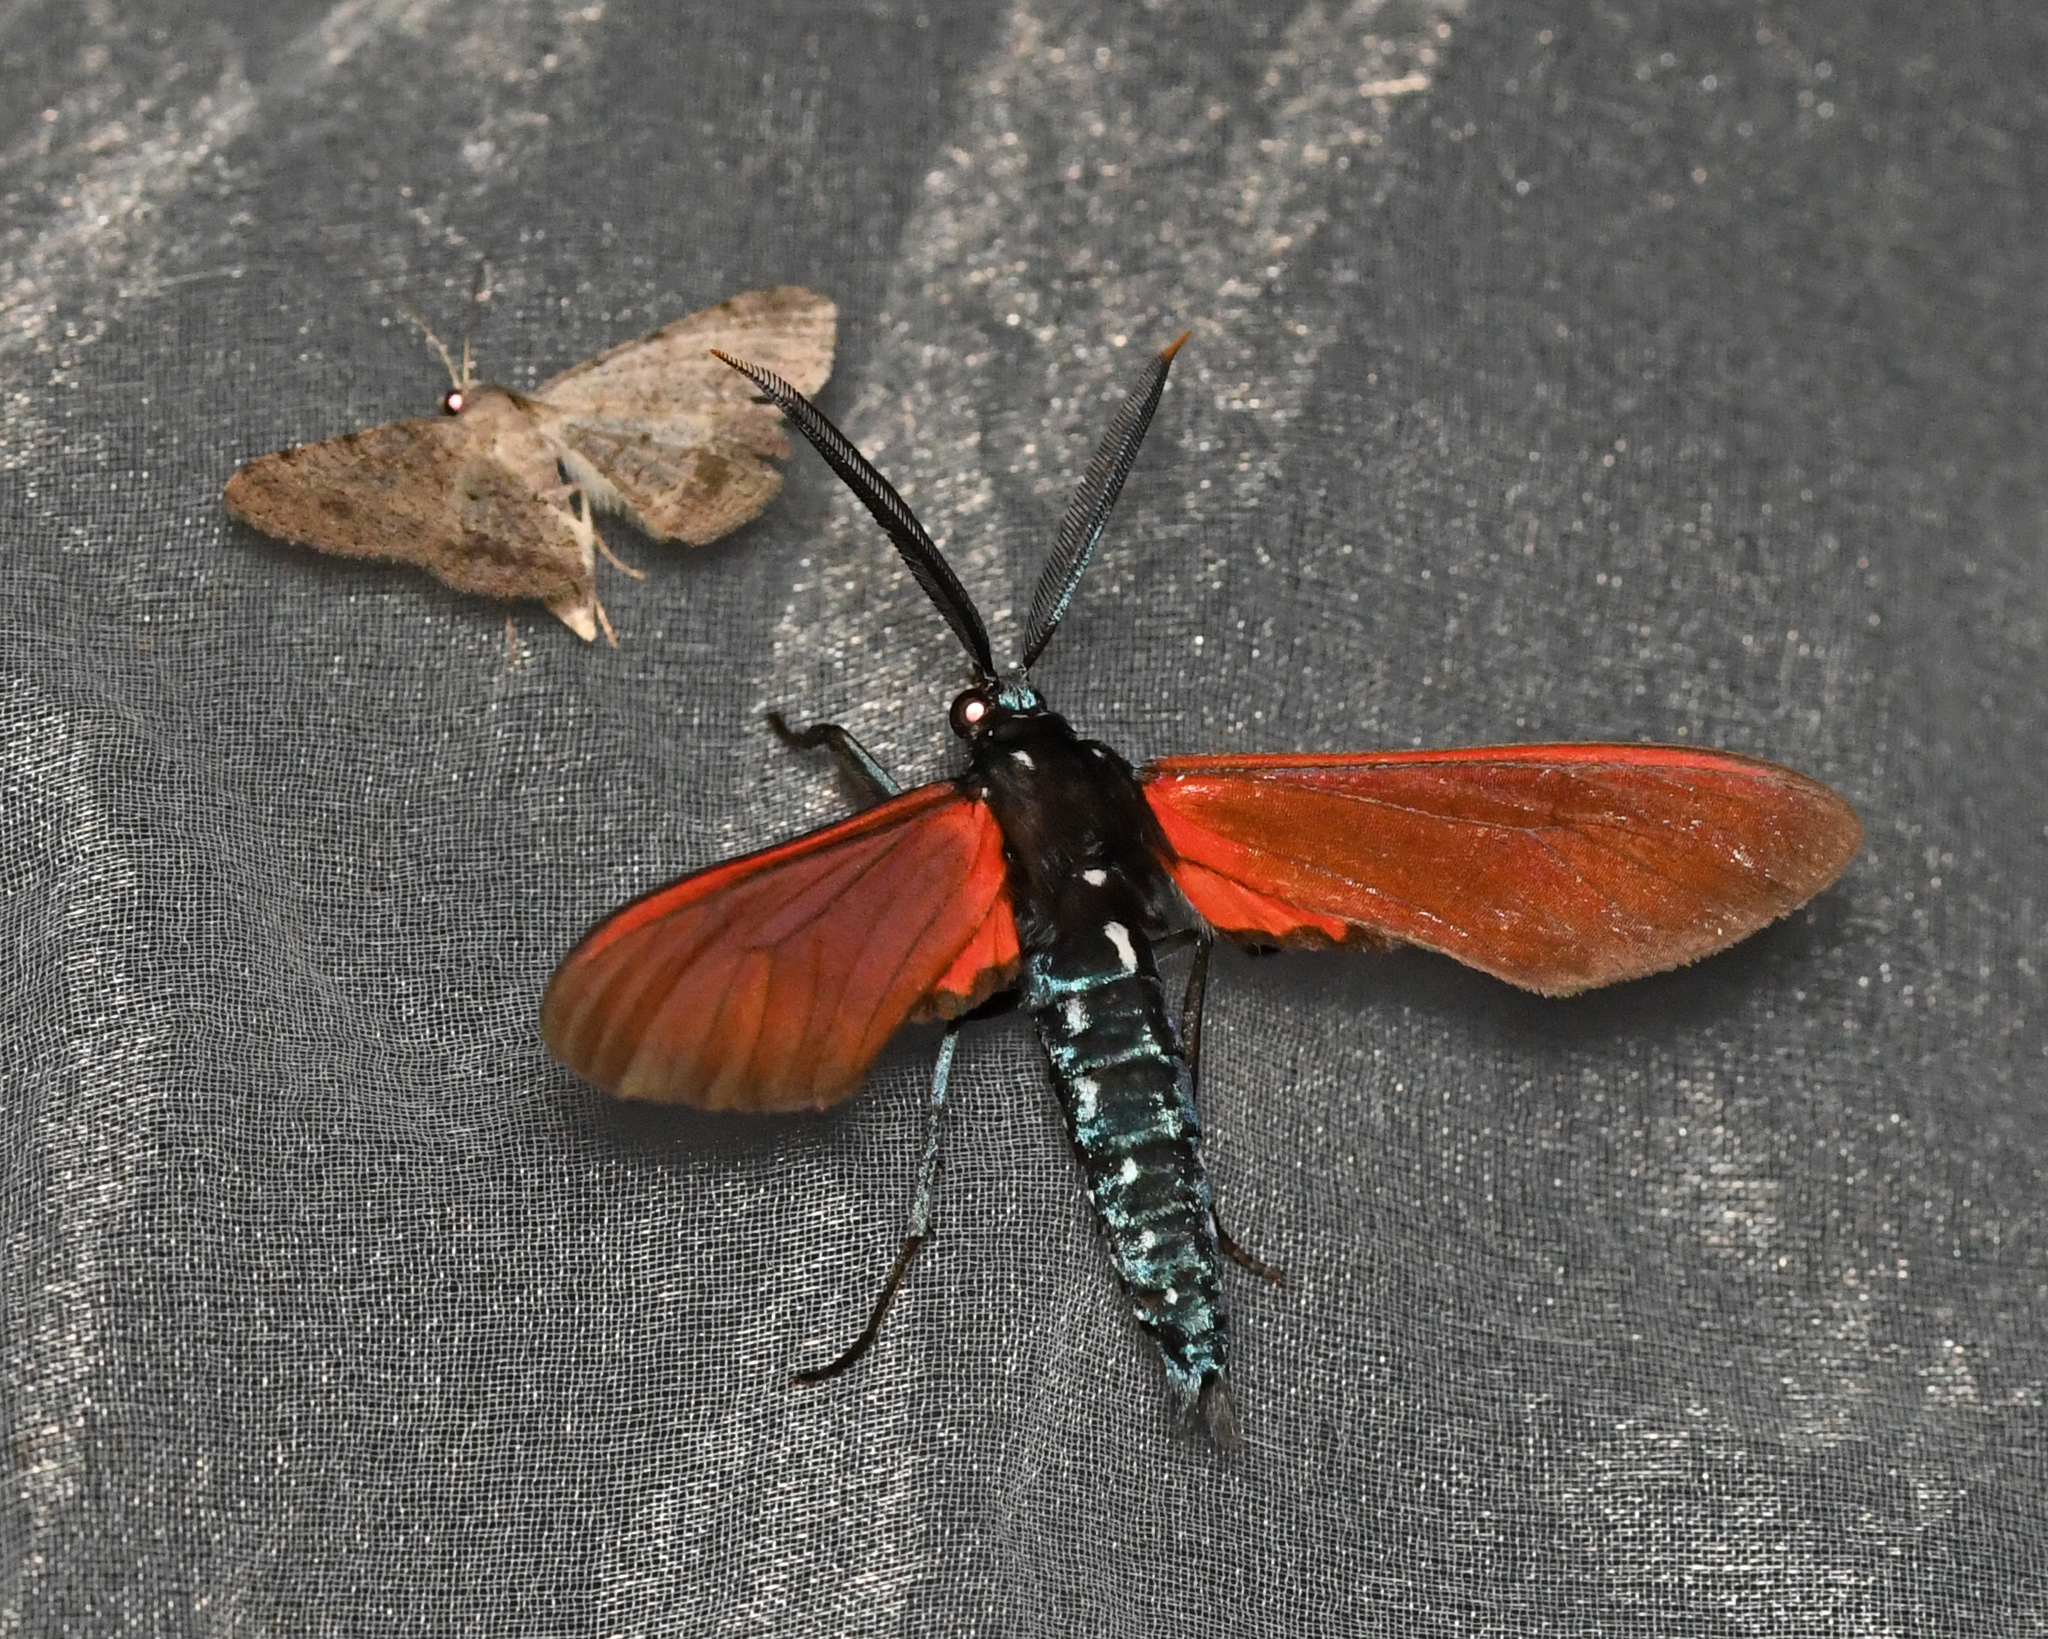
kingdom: Animalia
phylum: Arthropoda
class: Insecta
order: Lepidoptera
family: Erebidae
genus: Empyreuma
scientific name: Empyreuma pugione
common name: Spotted oleander caterpillar moth
